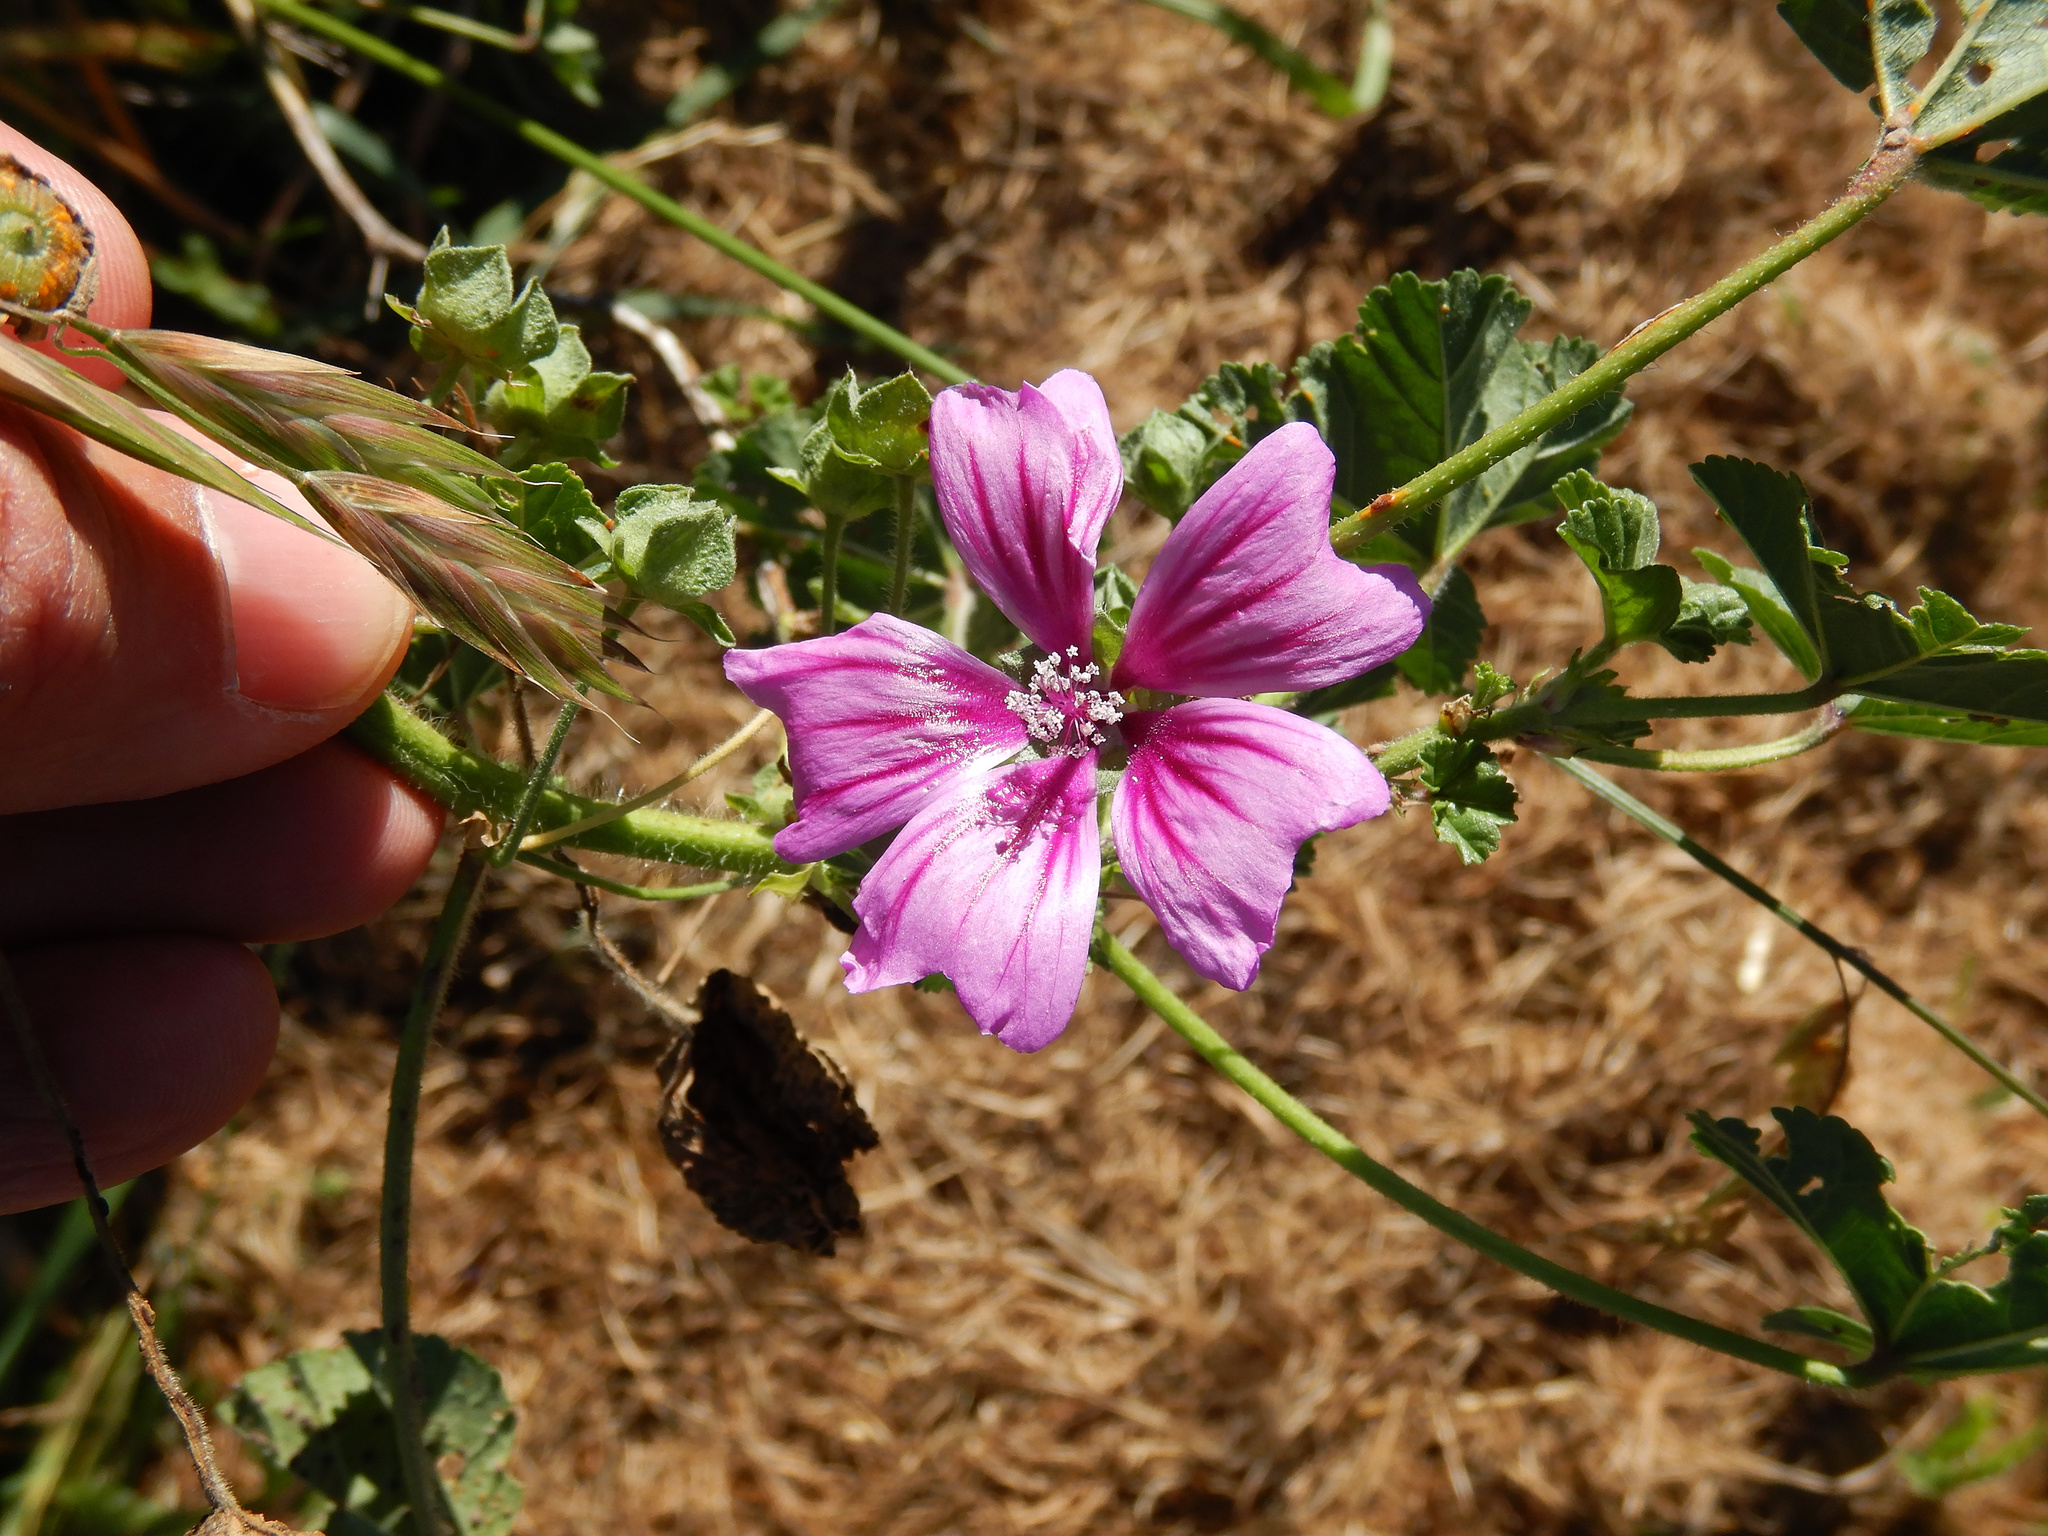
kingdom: Plantae
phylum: Tracheophyta
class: Magnoliopsida
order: Malvales
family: Malvaceae
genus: Malva
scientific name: Malva sylvestris
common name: Common mallow
